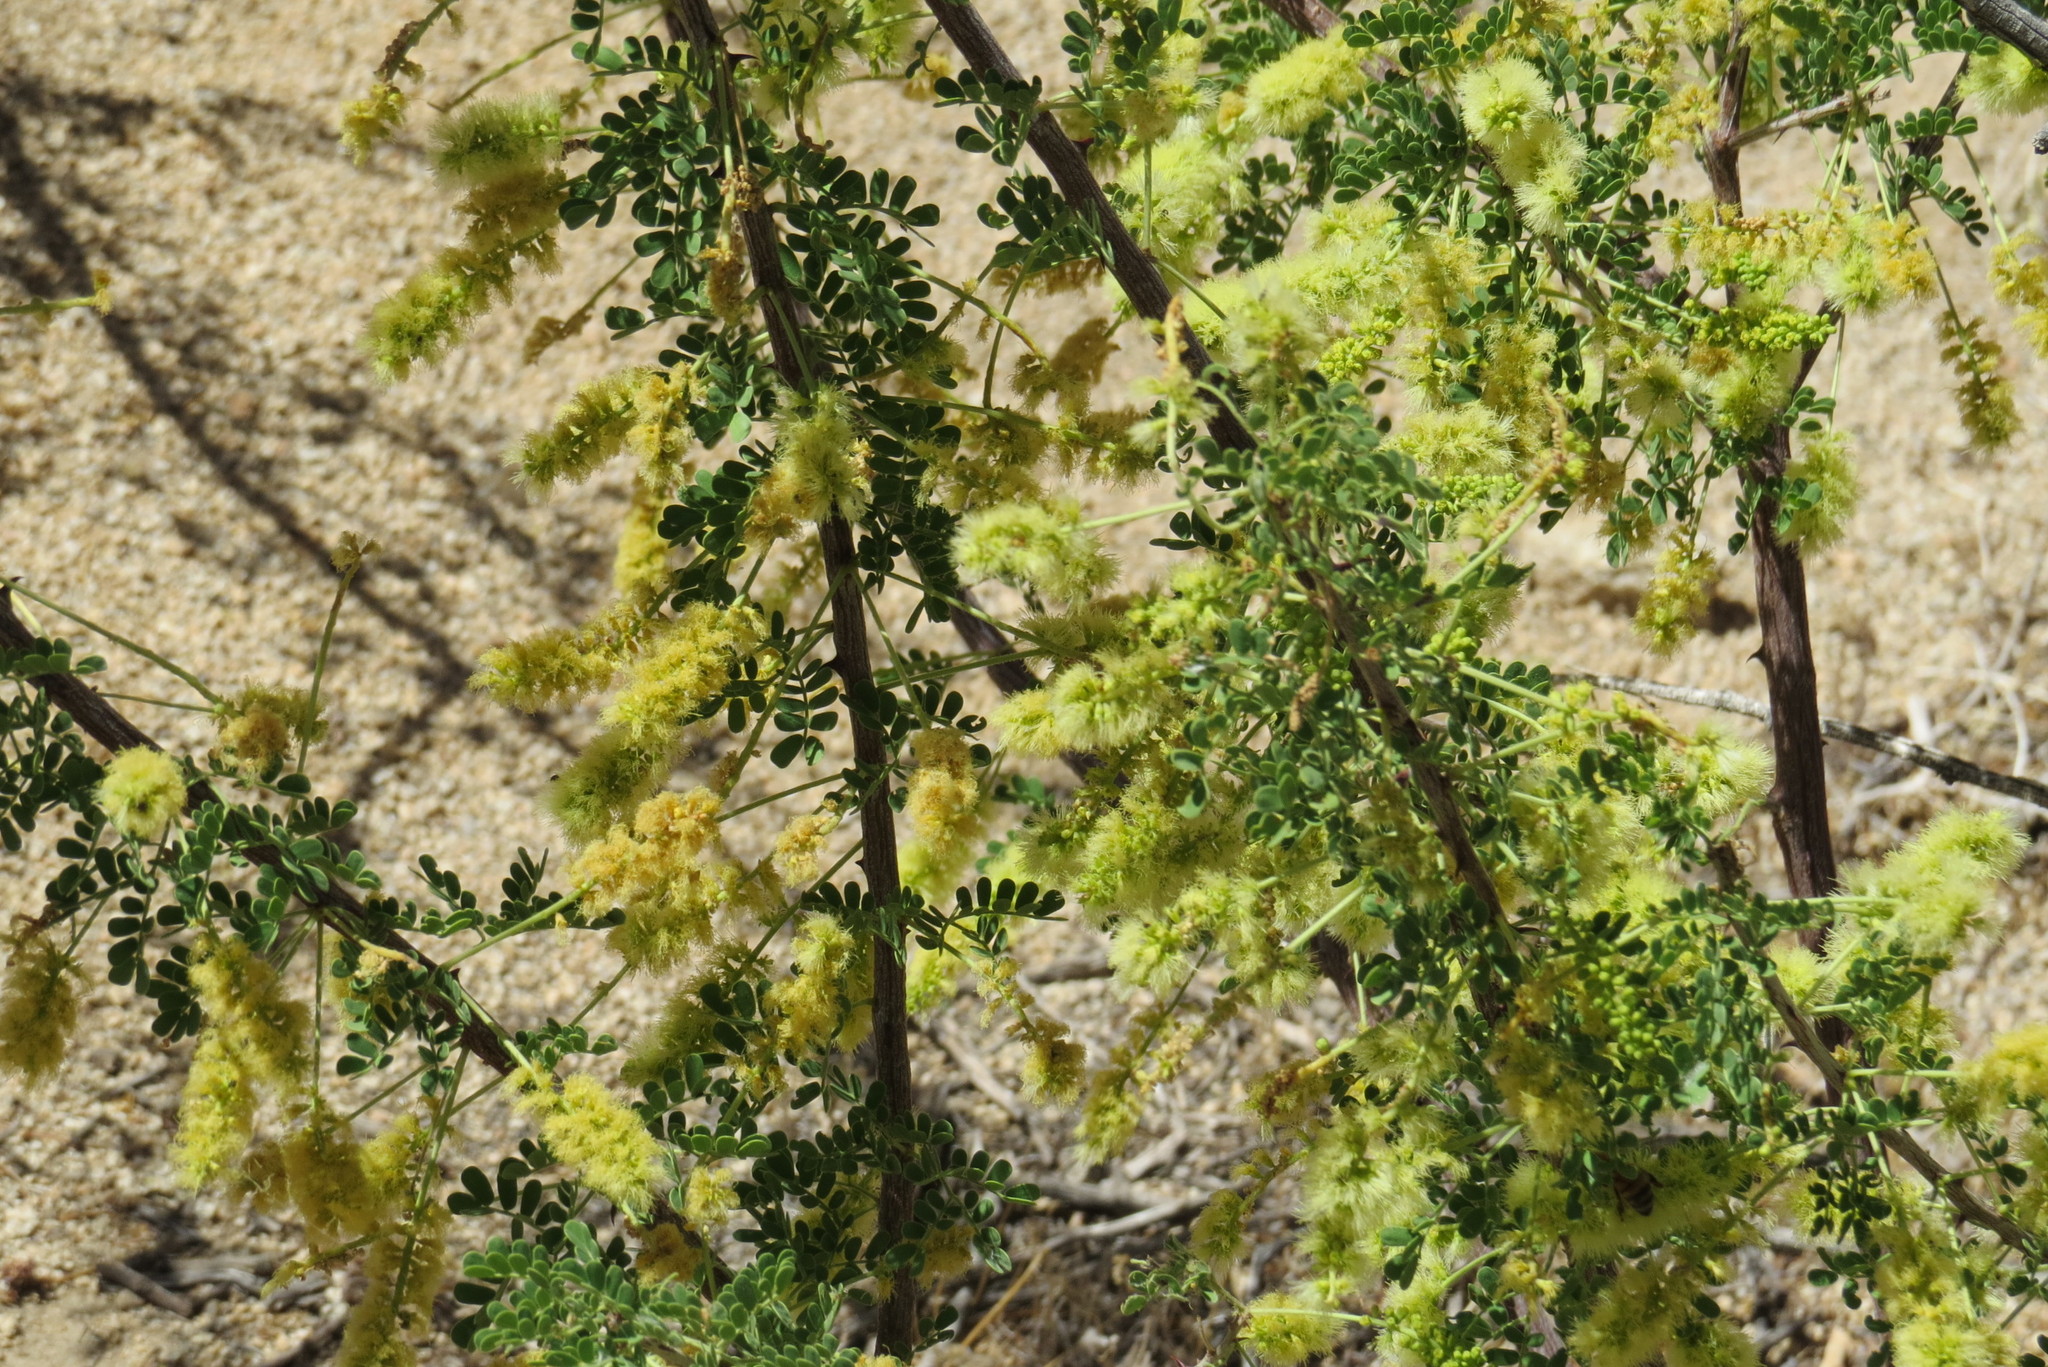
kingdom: Plantae
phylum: Tracheophyta
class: Magnoliopsida
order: Fabales
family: Fabaceae
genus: Senegalia
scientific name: Senegalia greggii
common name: Texas-mimosa
